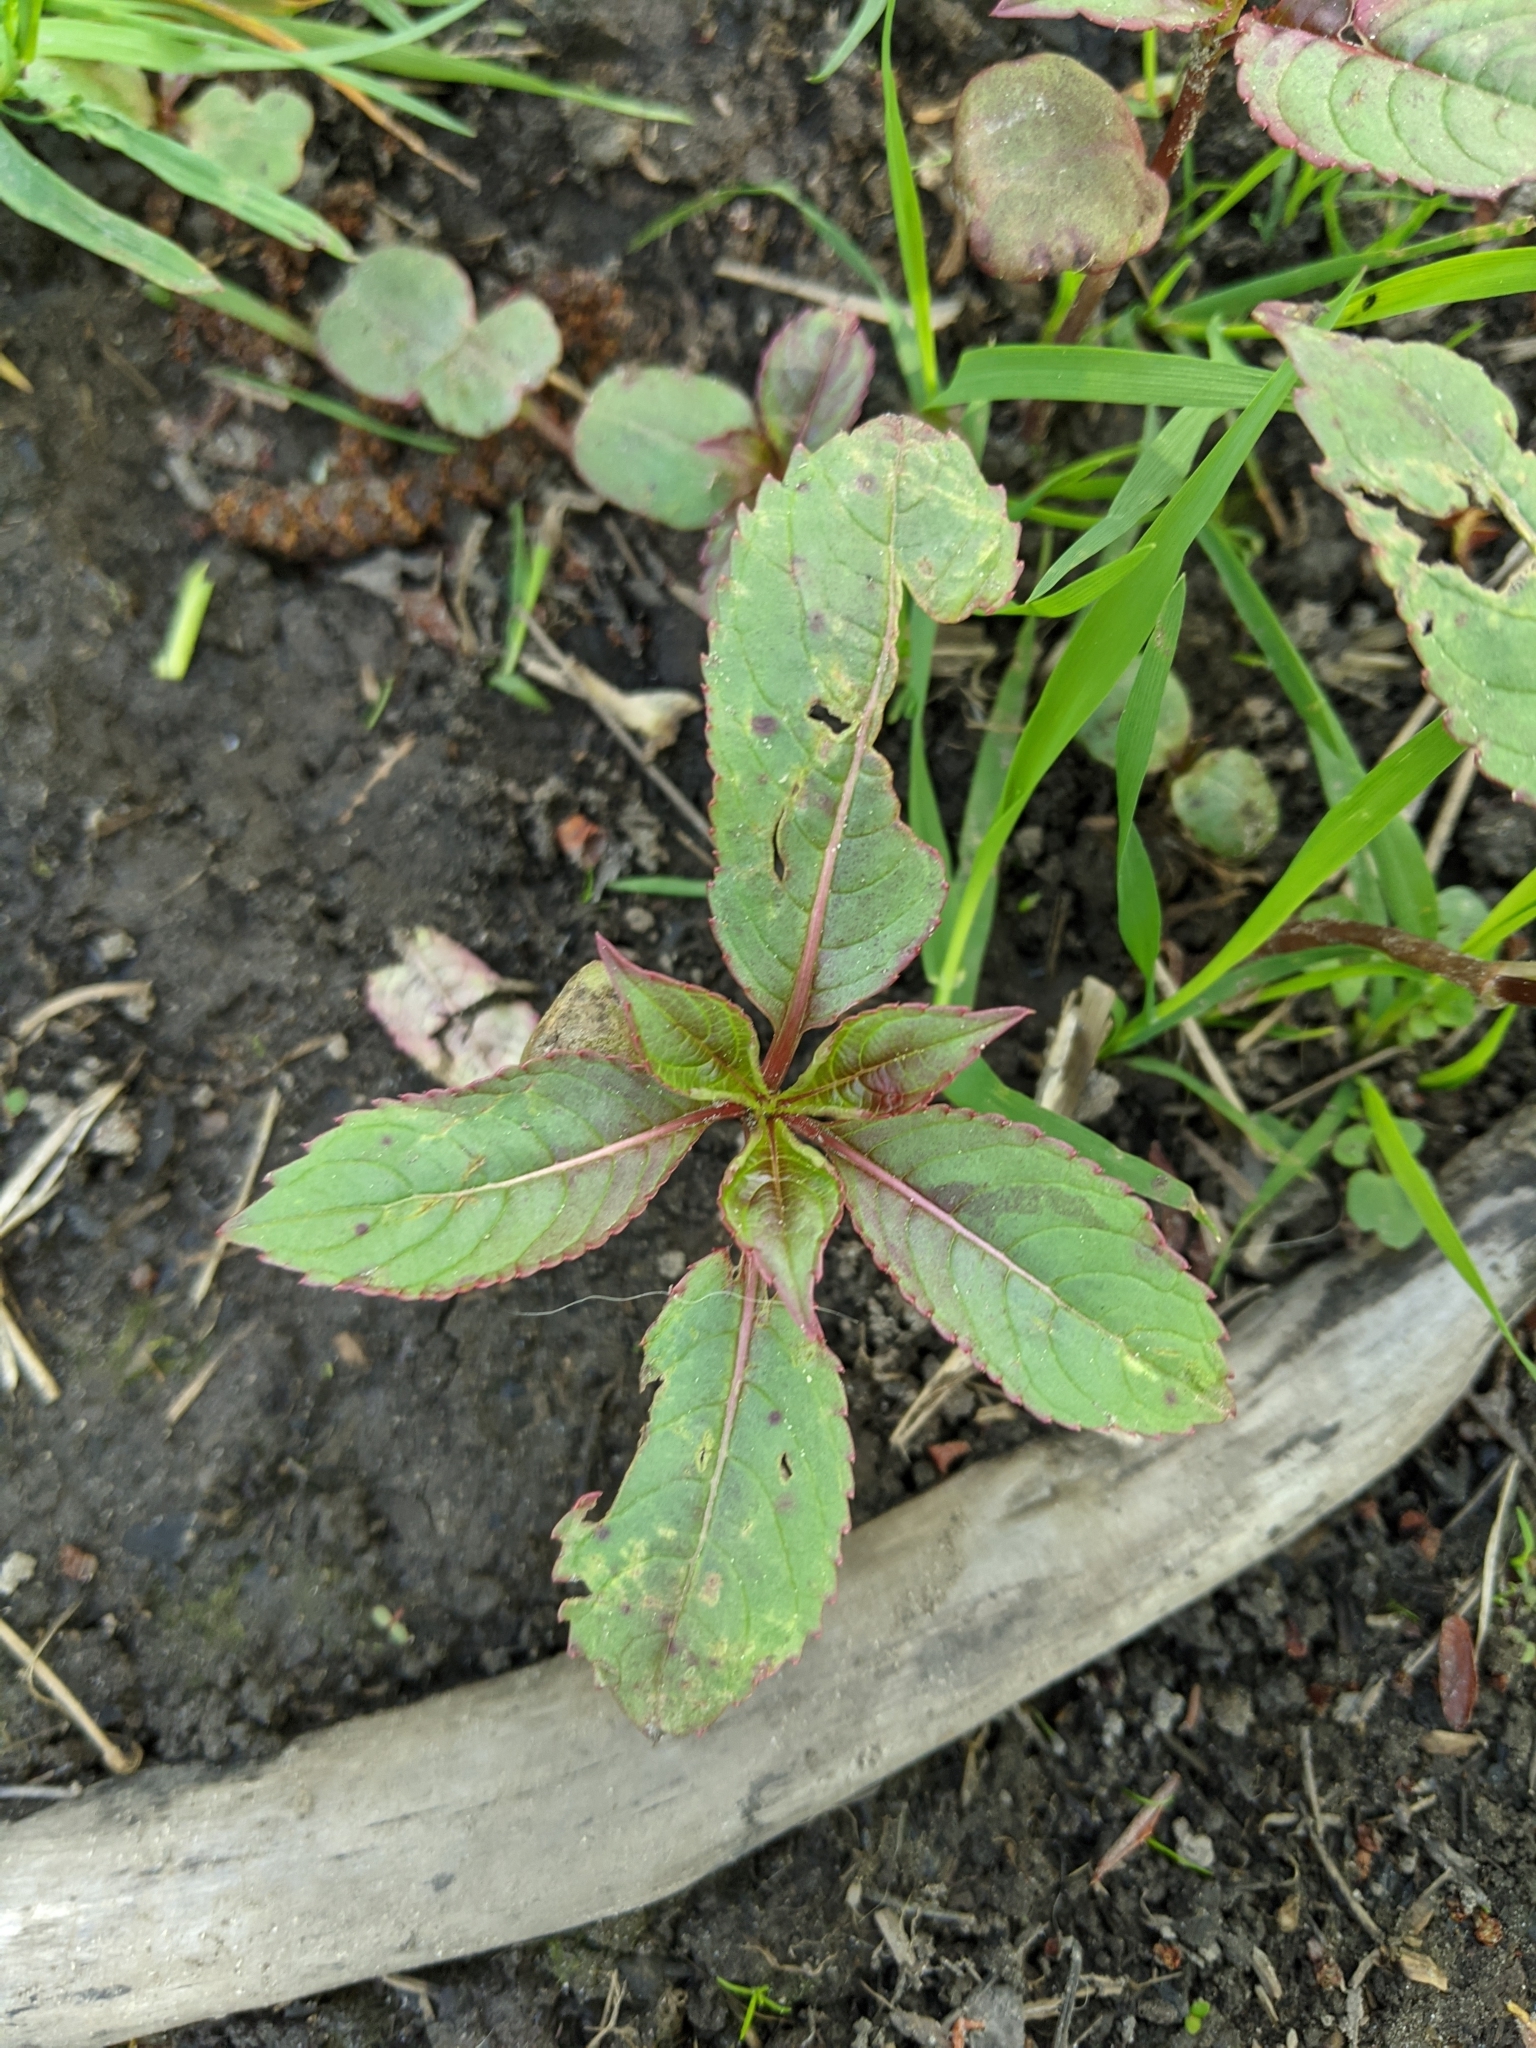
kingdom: Plantae
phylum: Tracheophyta
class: Magnoliopsida
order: Ericales
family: Balsaminaceae
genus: Impatiens
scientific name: Impatiens glandulifera
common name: Himalayan balsam
